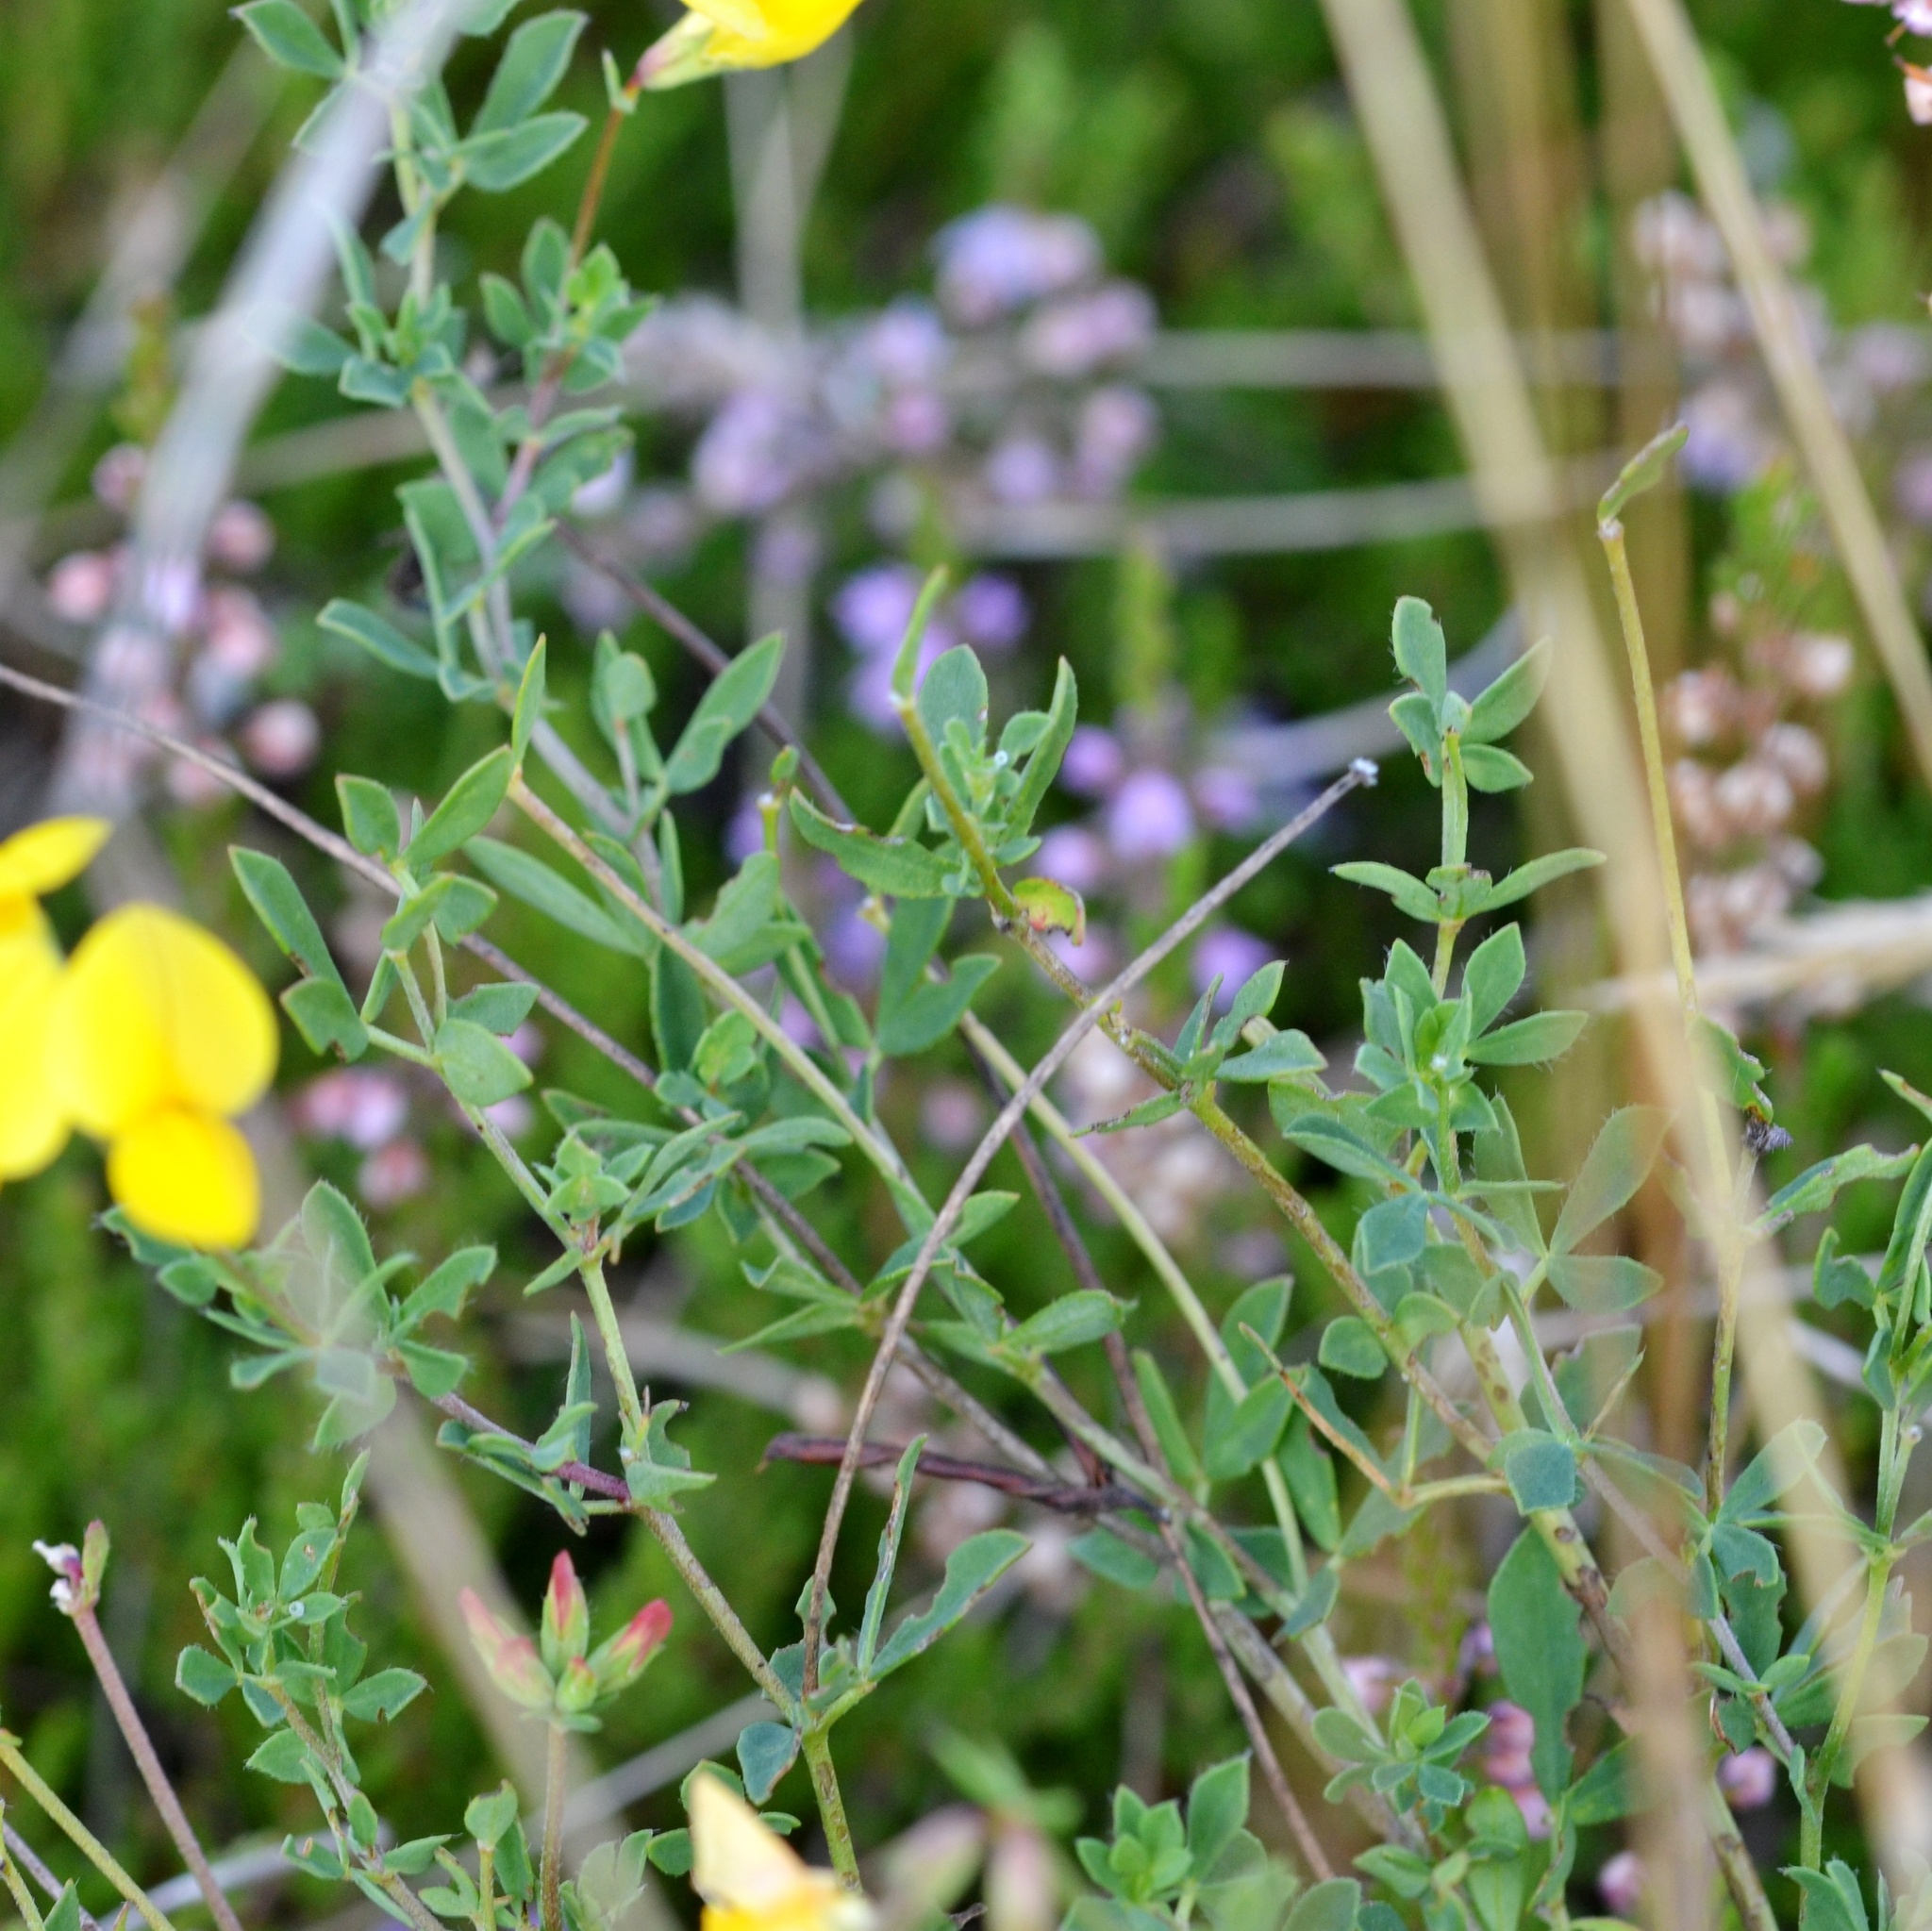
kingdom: Plantae
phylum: Tracheophyta
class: Magnoliopsida
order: Fabales
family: Fabaceae
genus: Lotus
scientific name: Lotus corniculatus
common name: Common bird's-foot-trefoil
